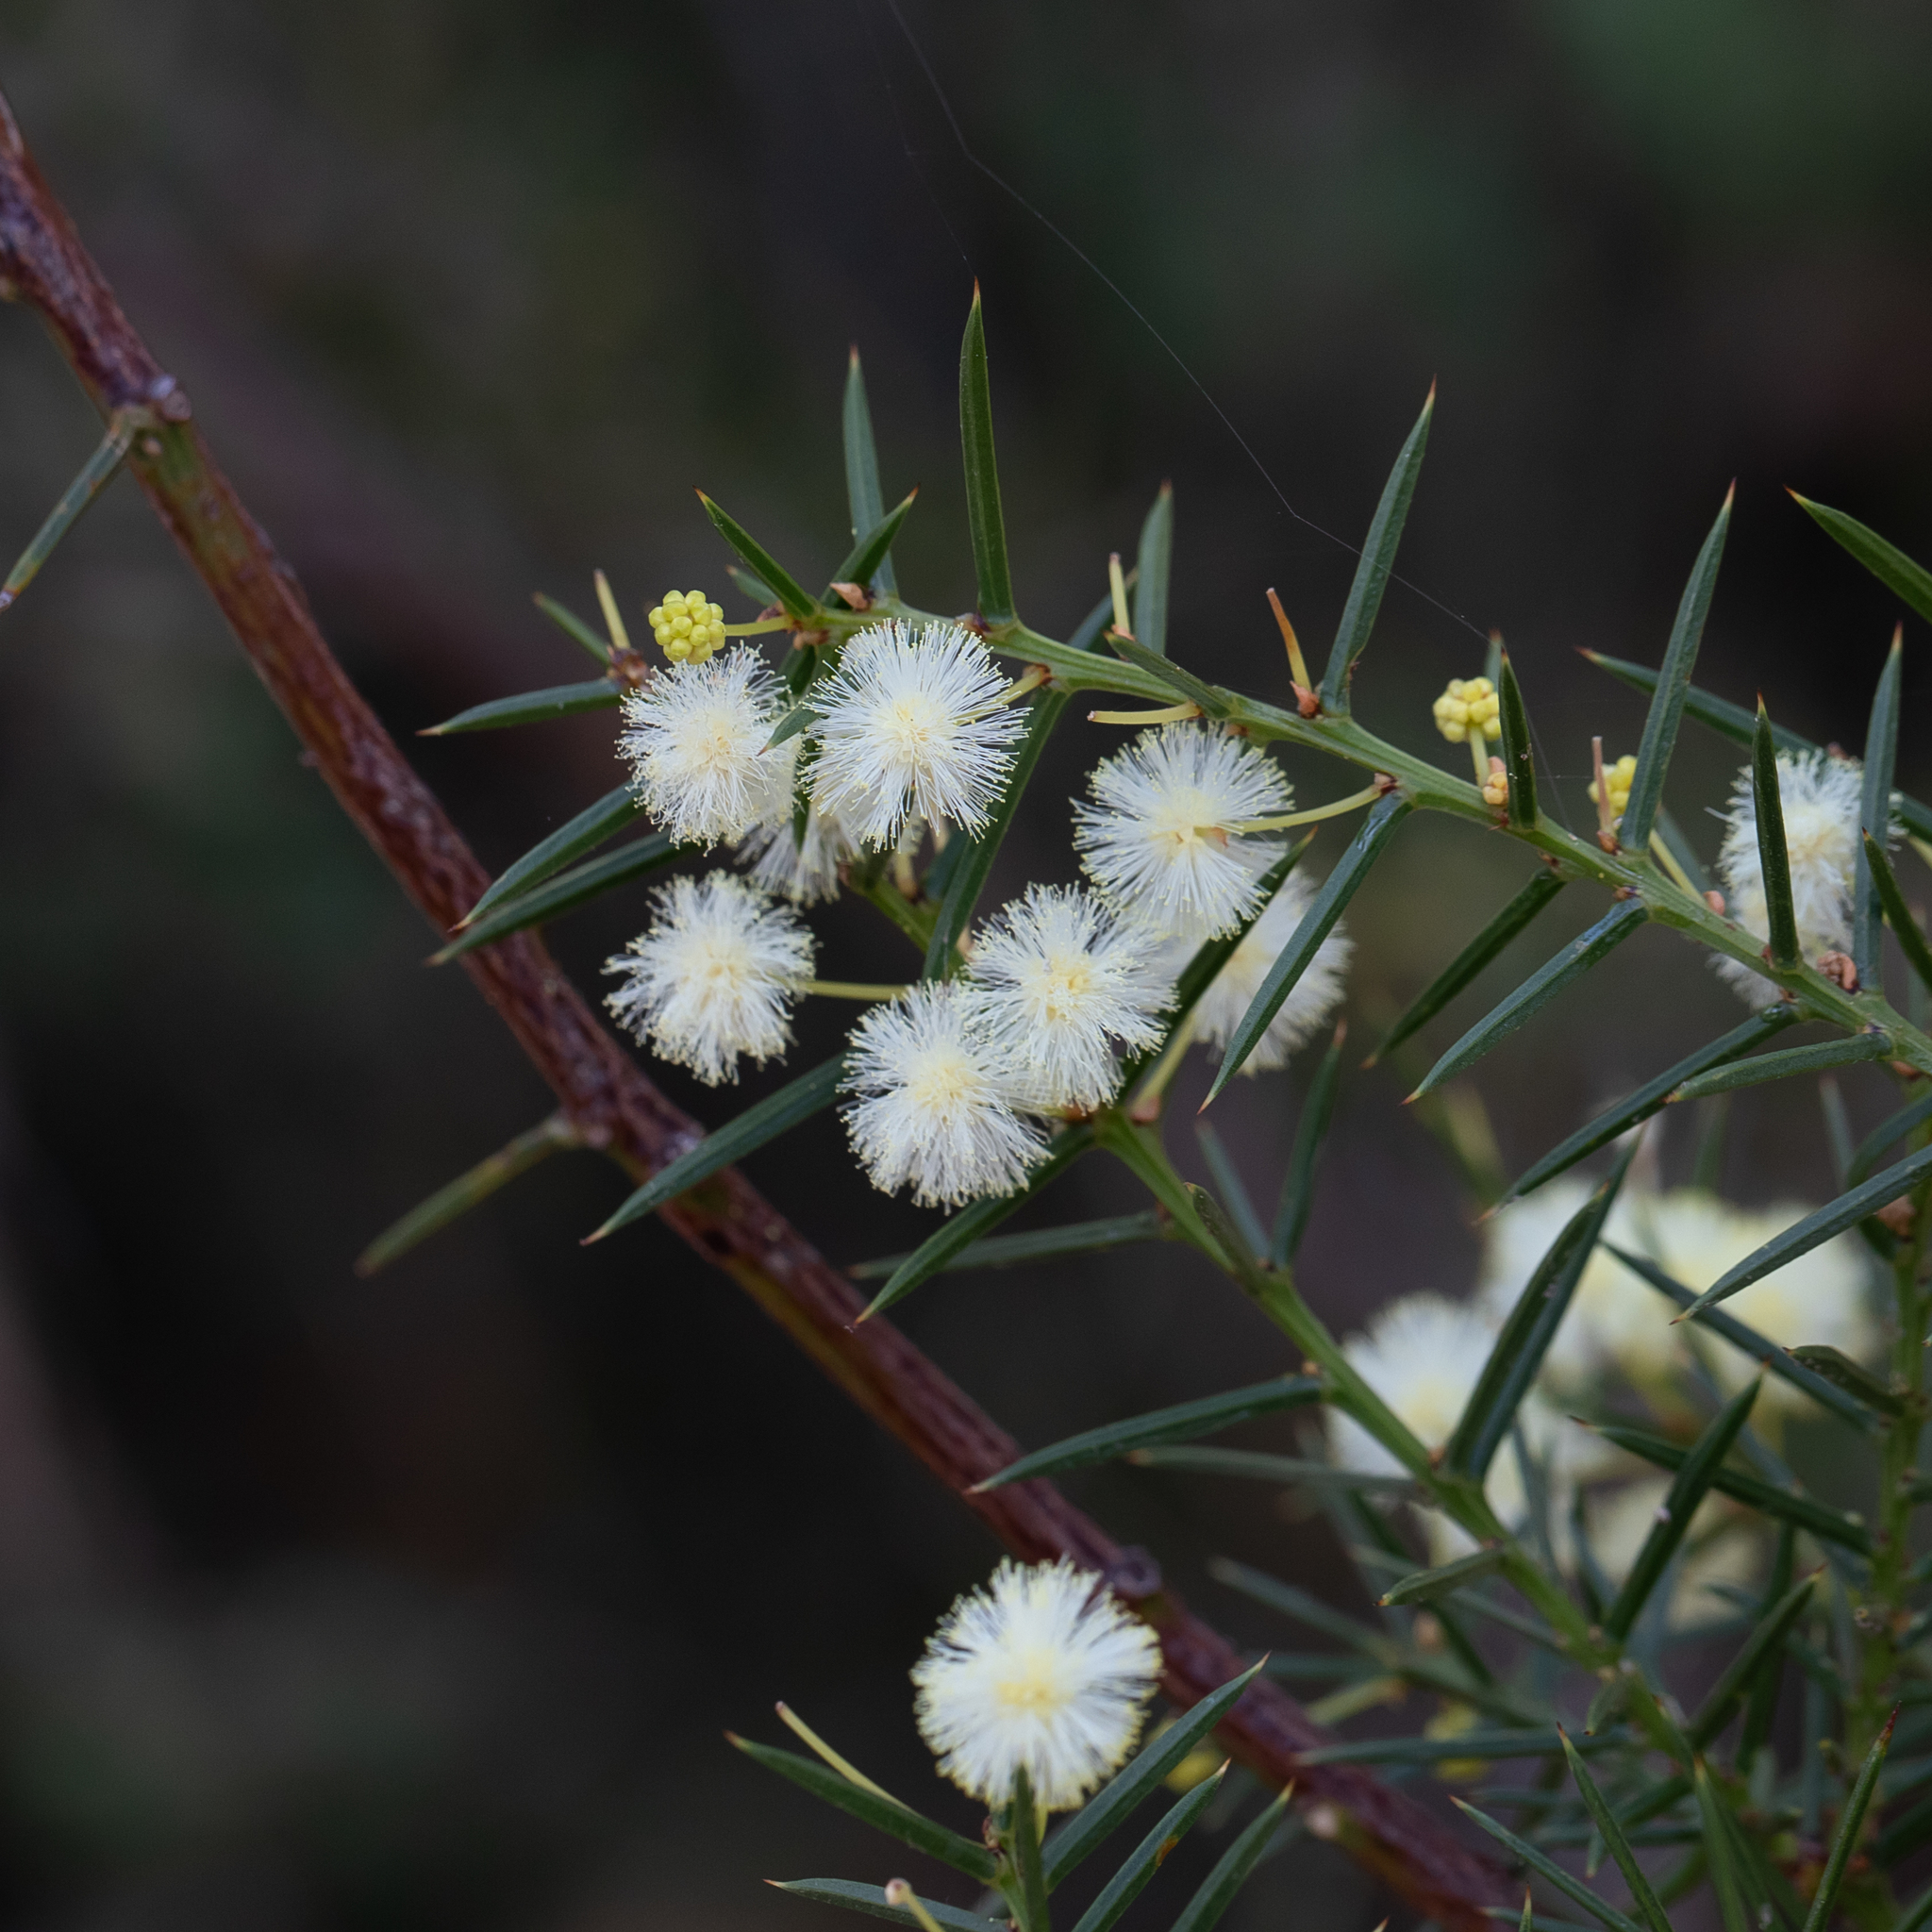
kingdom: Plantae
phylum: Tracheophyta
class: Magnoliopsida
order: Fabales
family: Fabaceae
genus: Acacia
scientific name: Acacia genistifolia
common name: Early wattle
